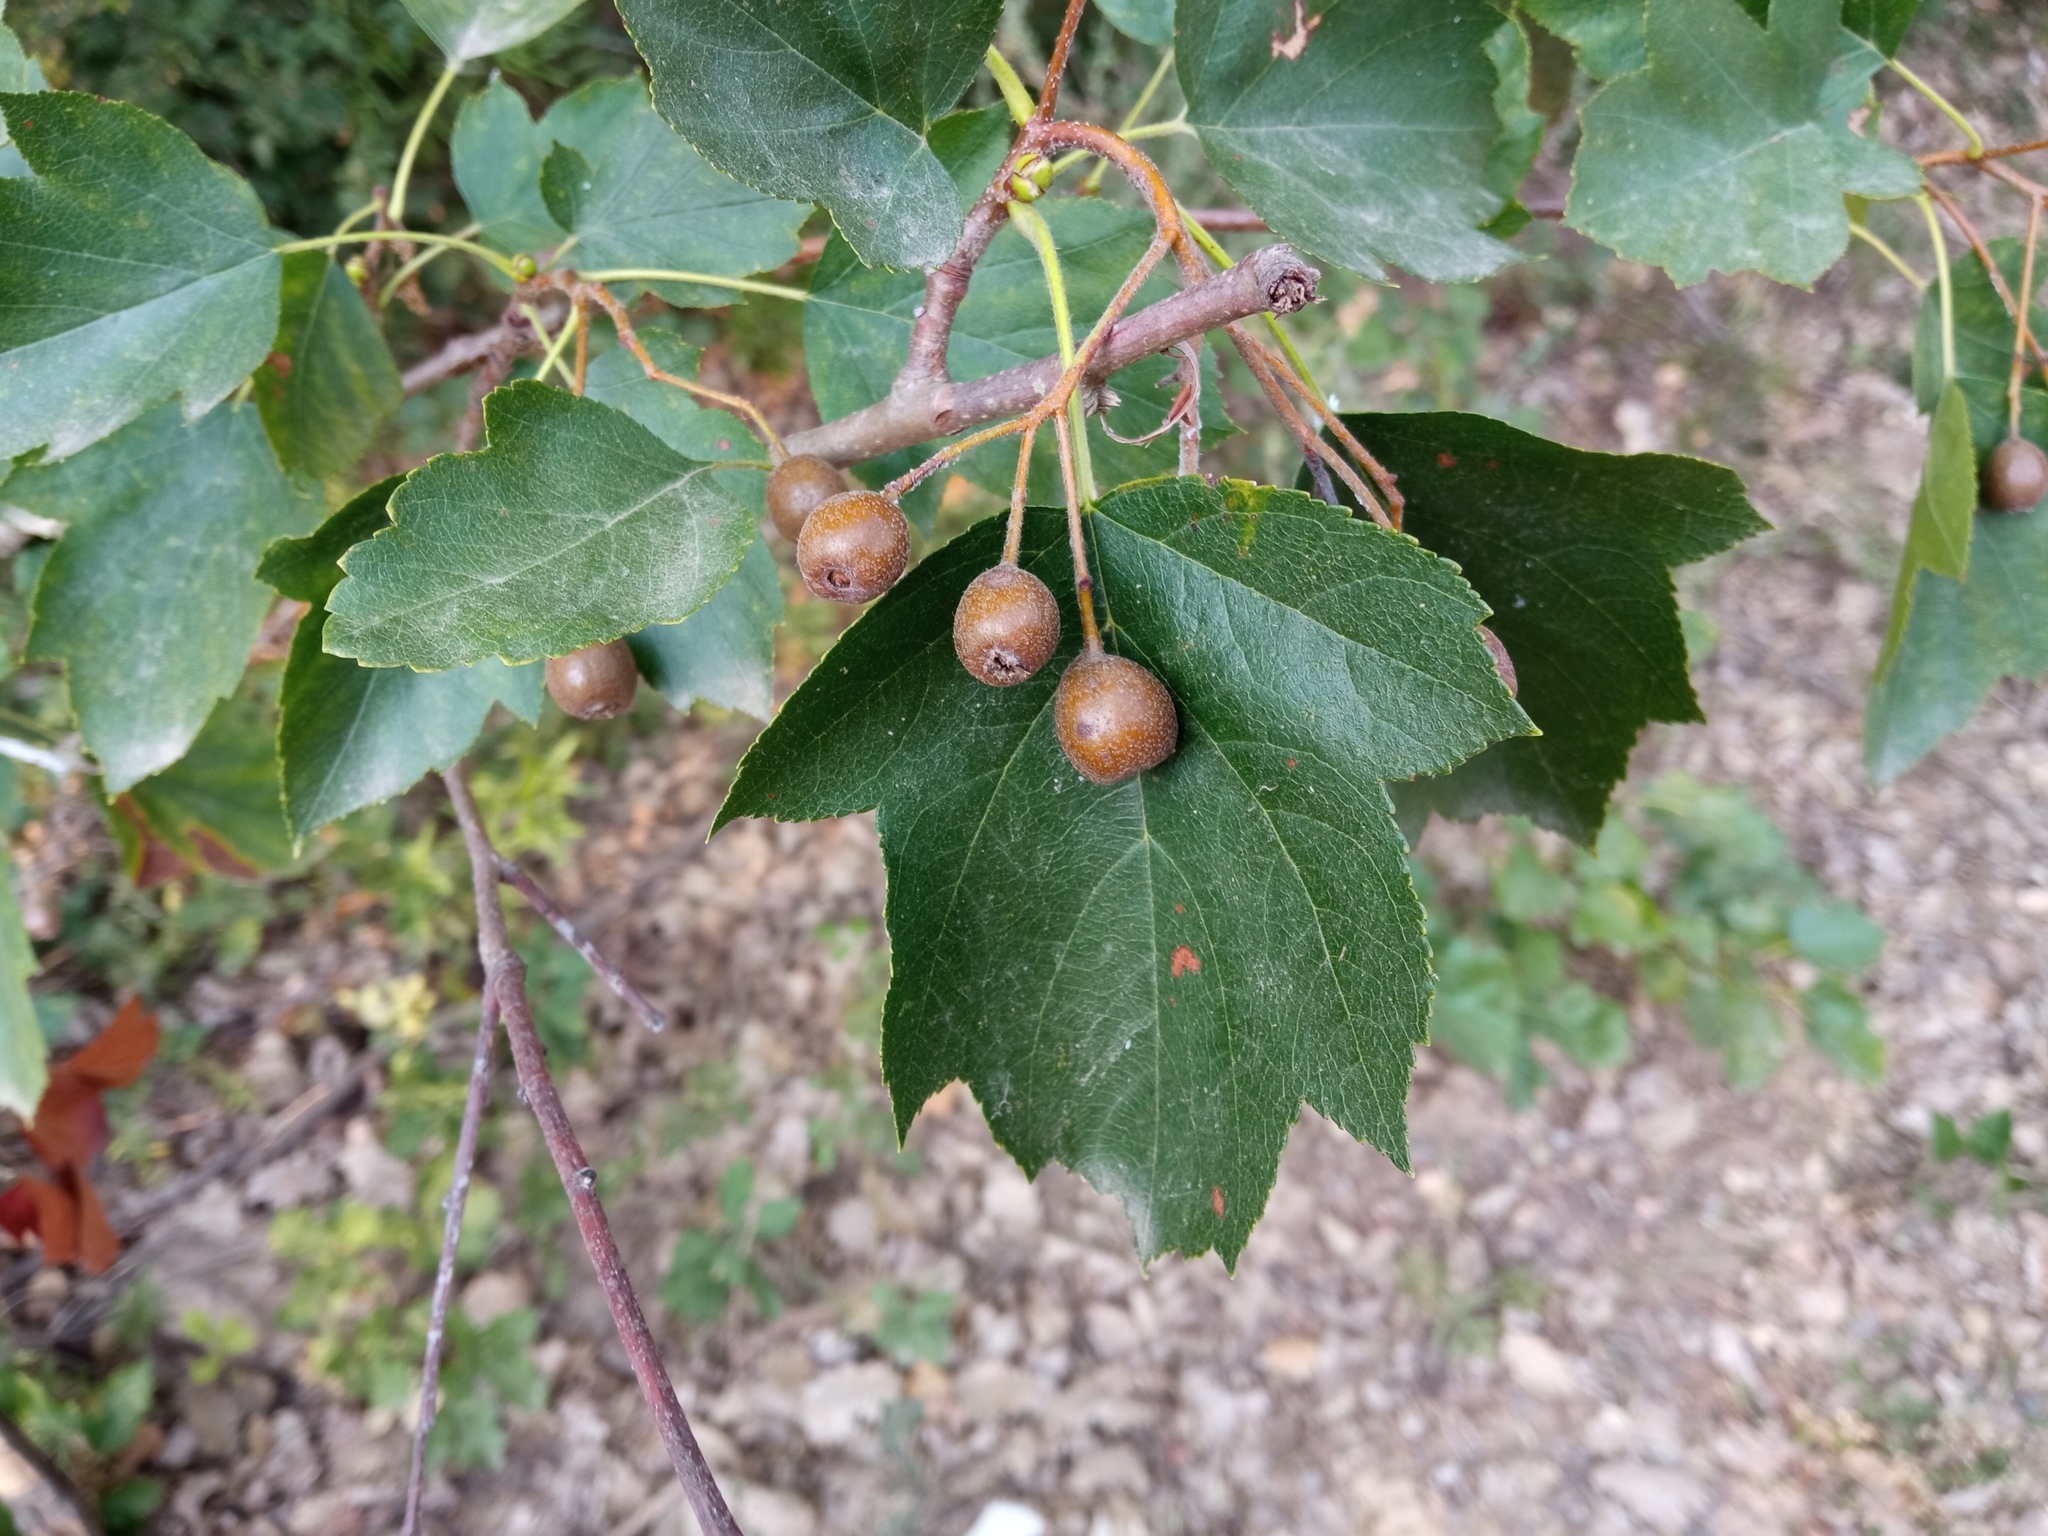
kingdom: Plantae
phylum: Tracheophyta
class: Magnoliopsida
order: Rosales
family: Rosaceae
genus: Torminalis
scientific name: Torminalis glaberrima
